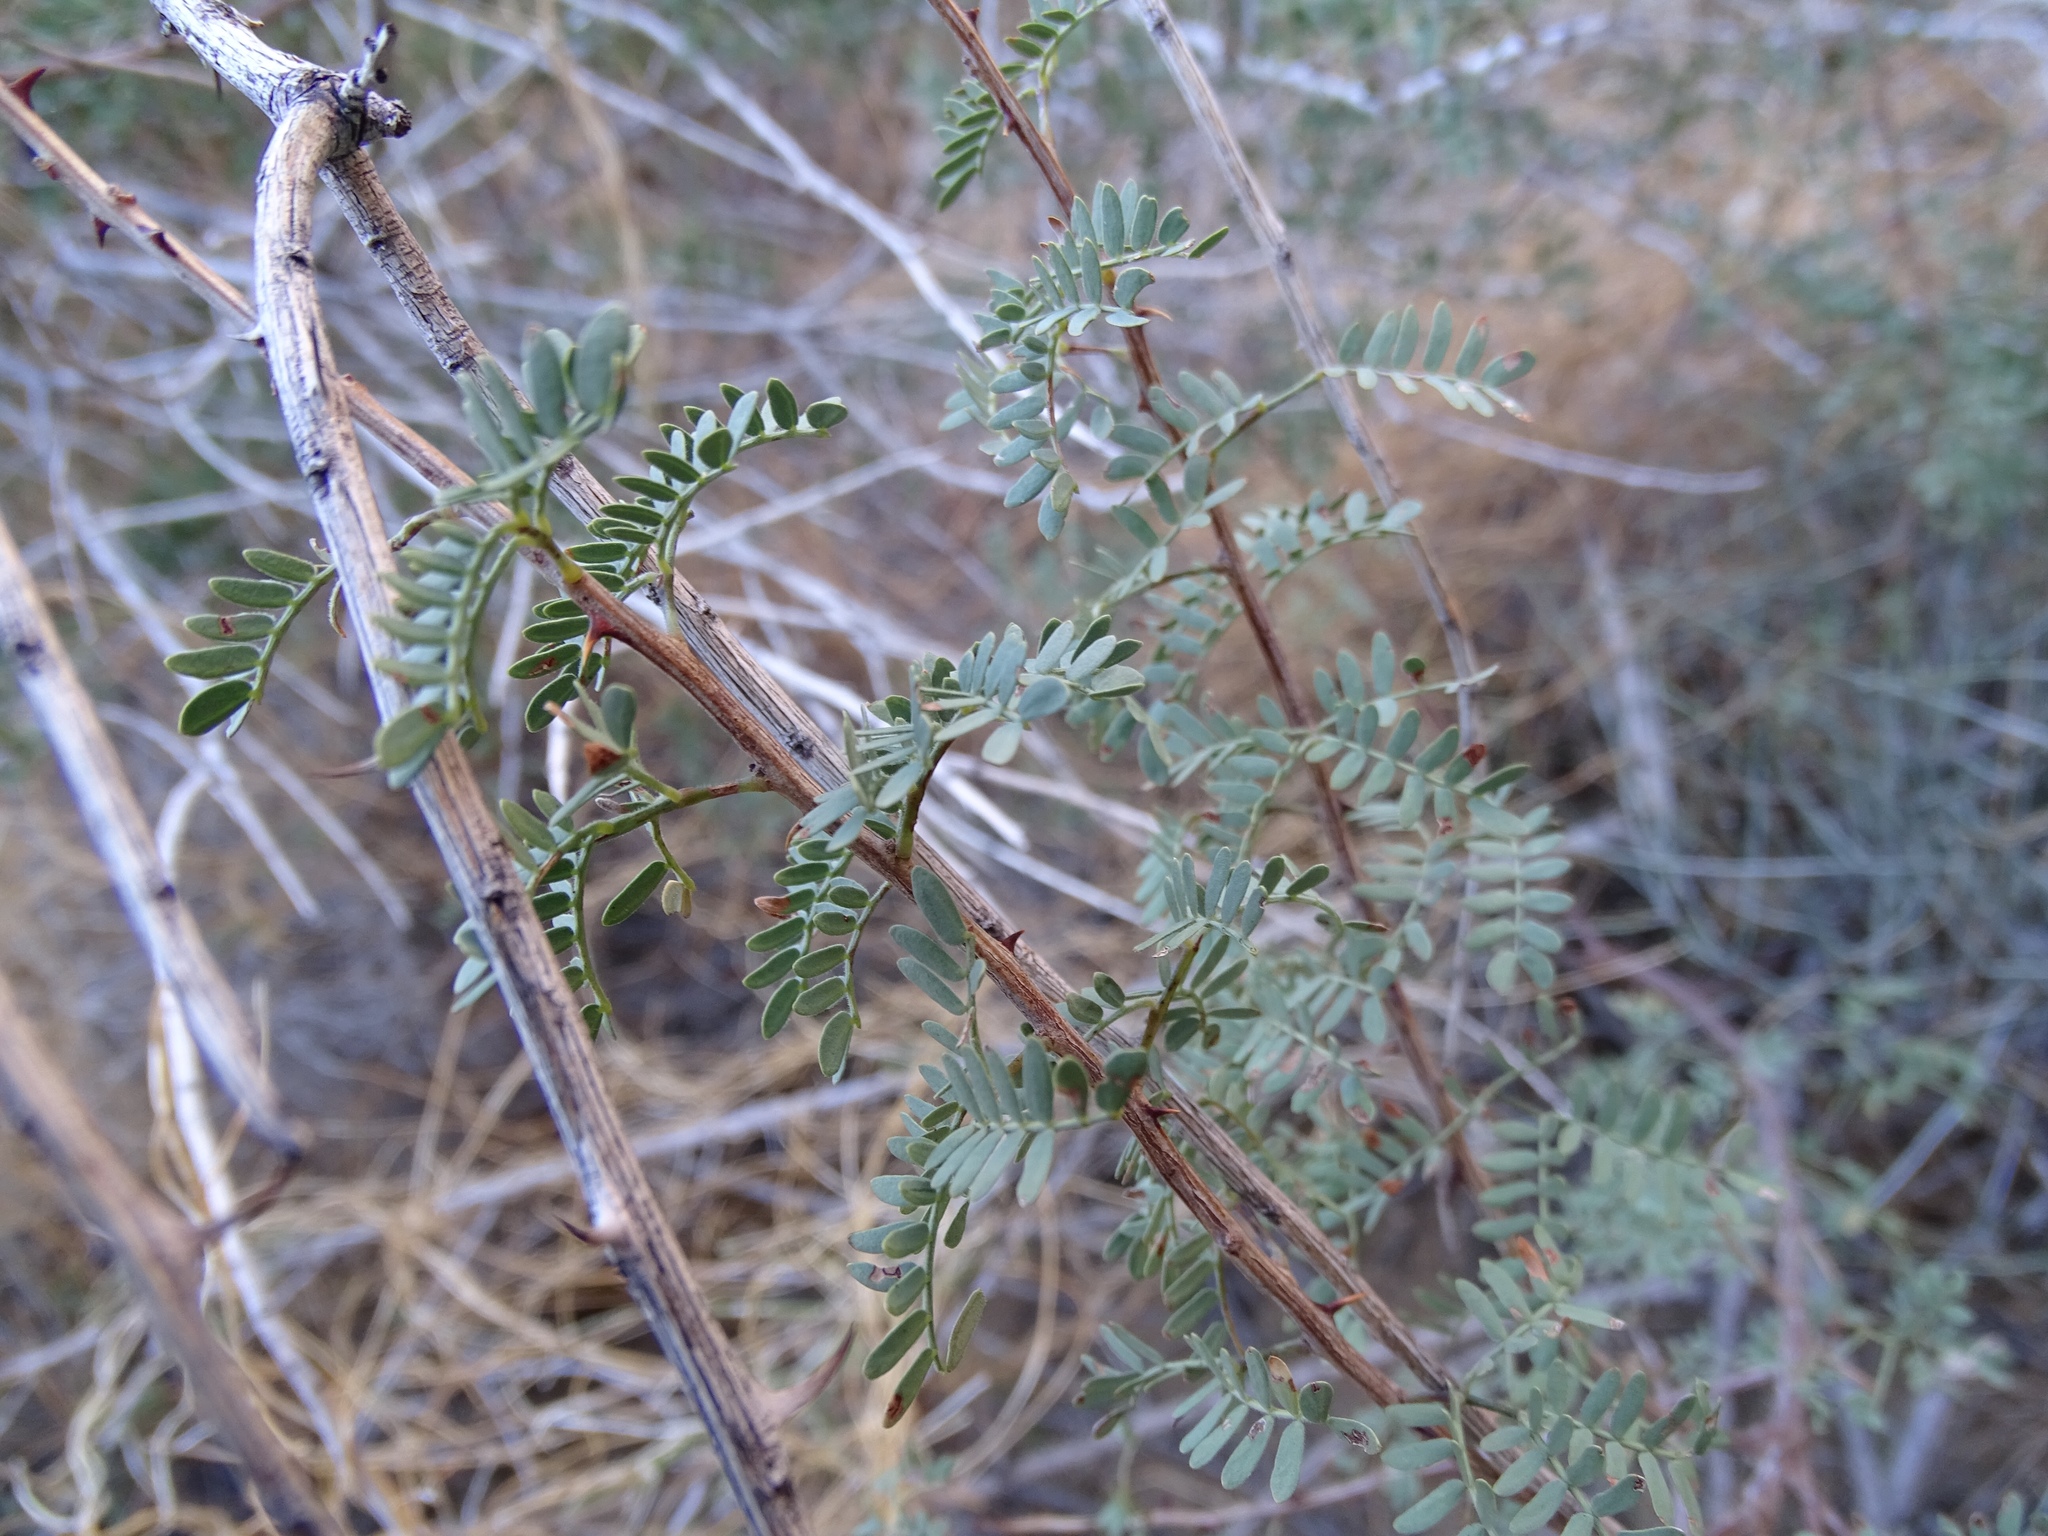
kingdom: Plantae
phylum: Tracheophyta
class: Magnoliopsida
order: Fabales
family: Fabaceae
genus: Senegalia
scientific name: Senegalia greggii
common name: Texas-mimosa
